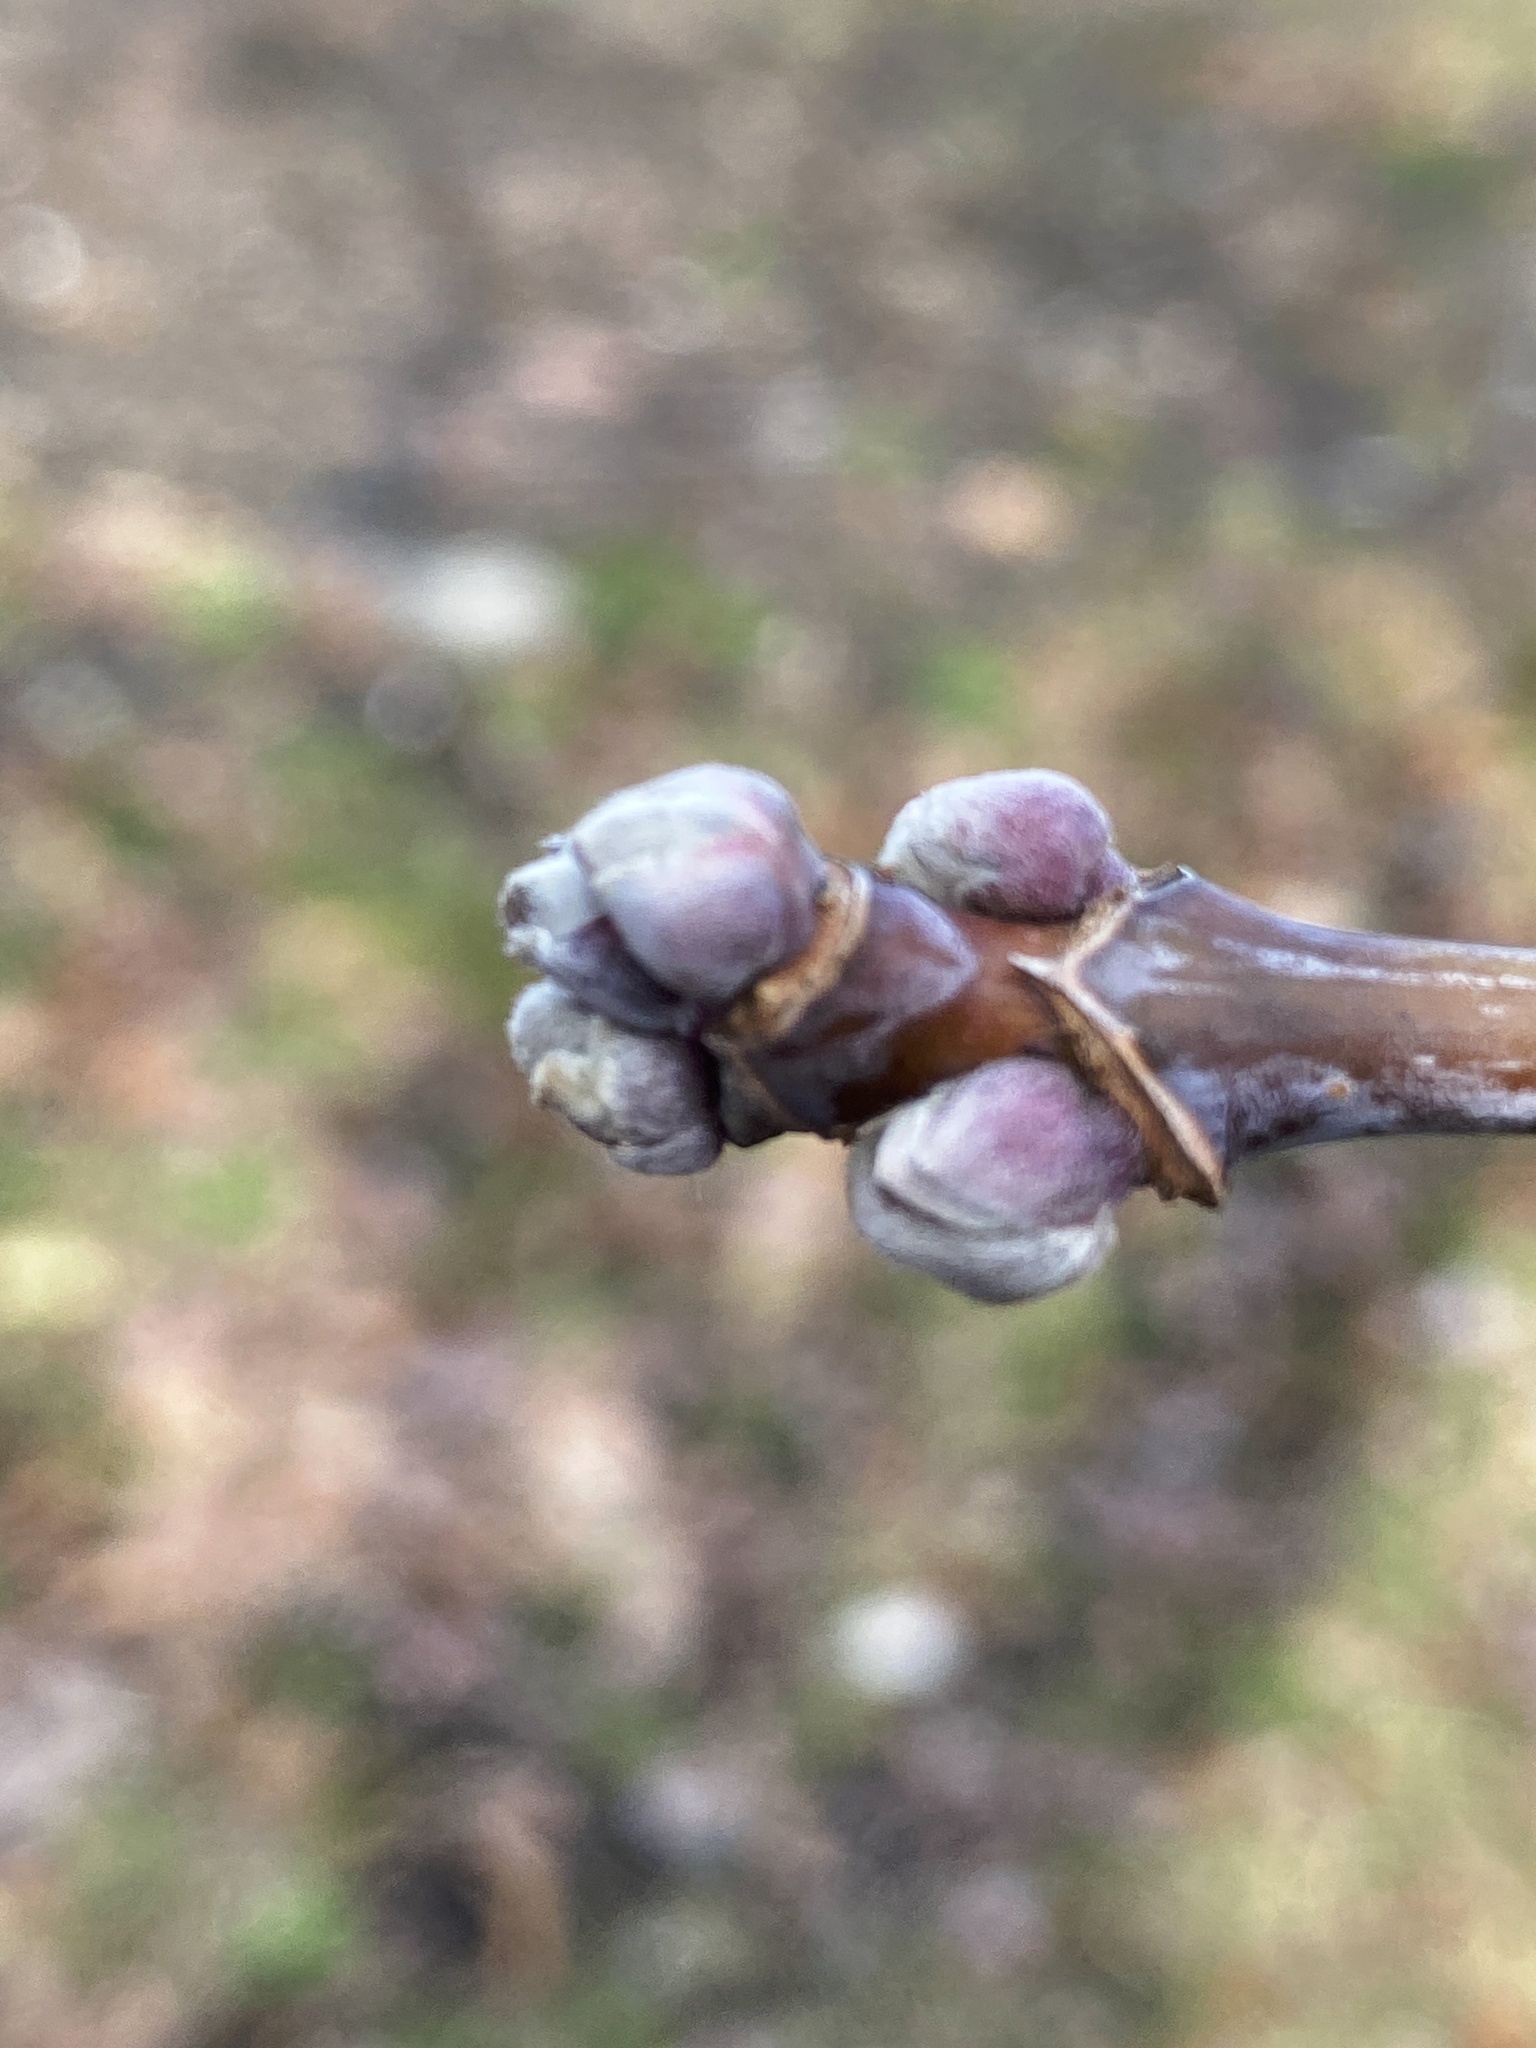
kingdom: Plantae
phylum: Tracheophyta
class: Magnoliopsida
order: Sapindales
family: Sapindaceae
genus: Acer
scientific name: Acer negundo
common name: Ashleaf maple
